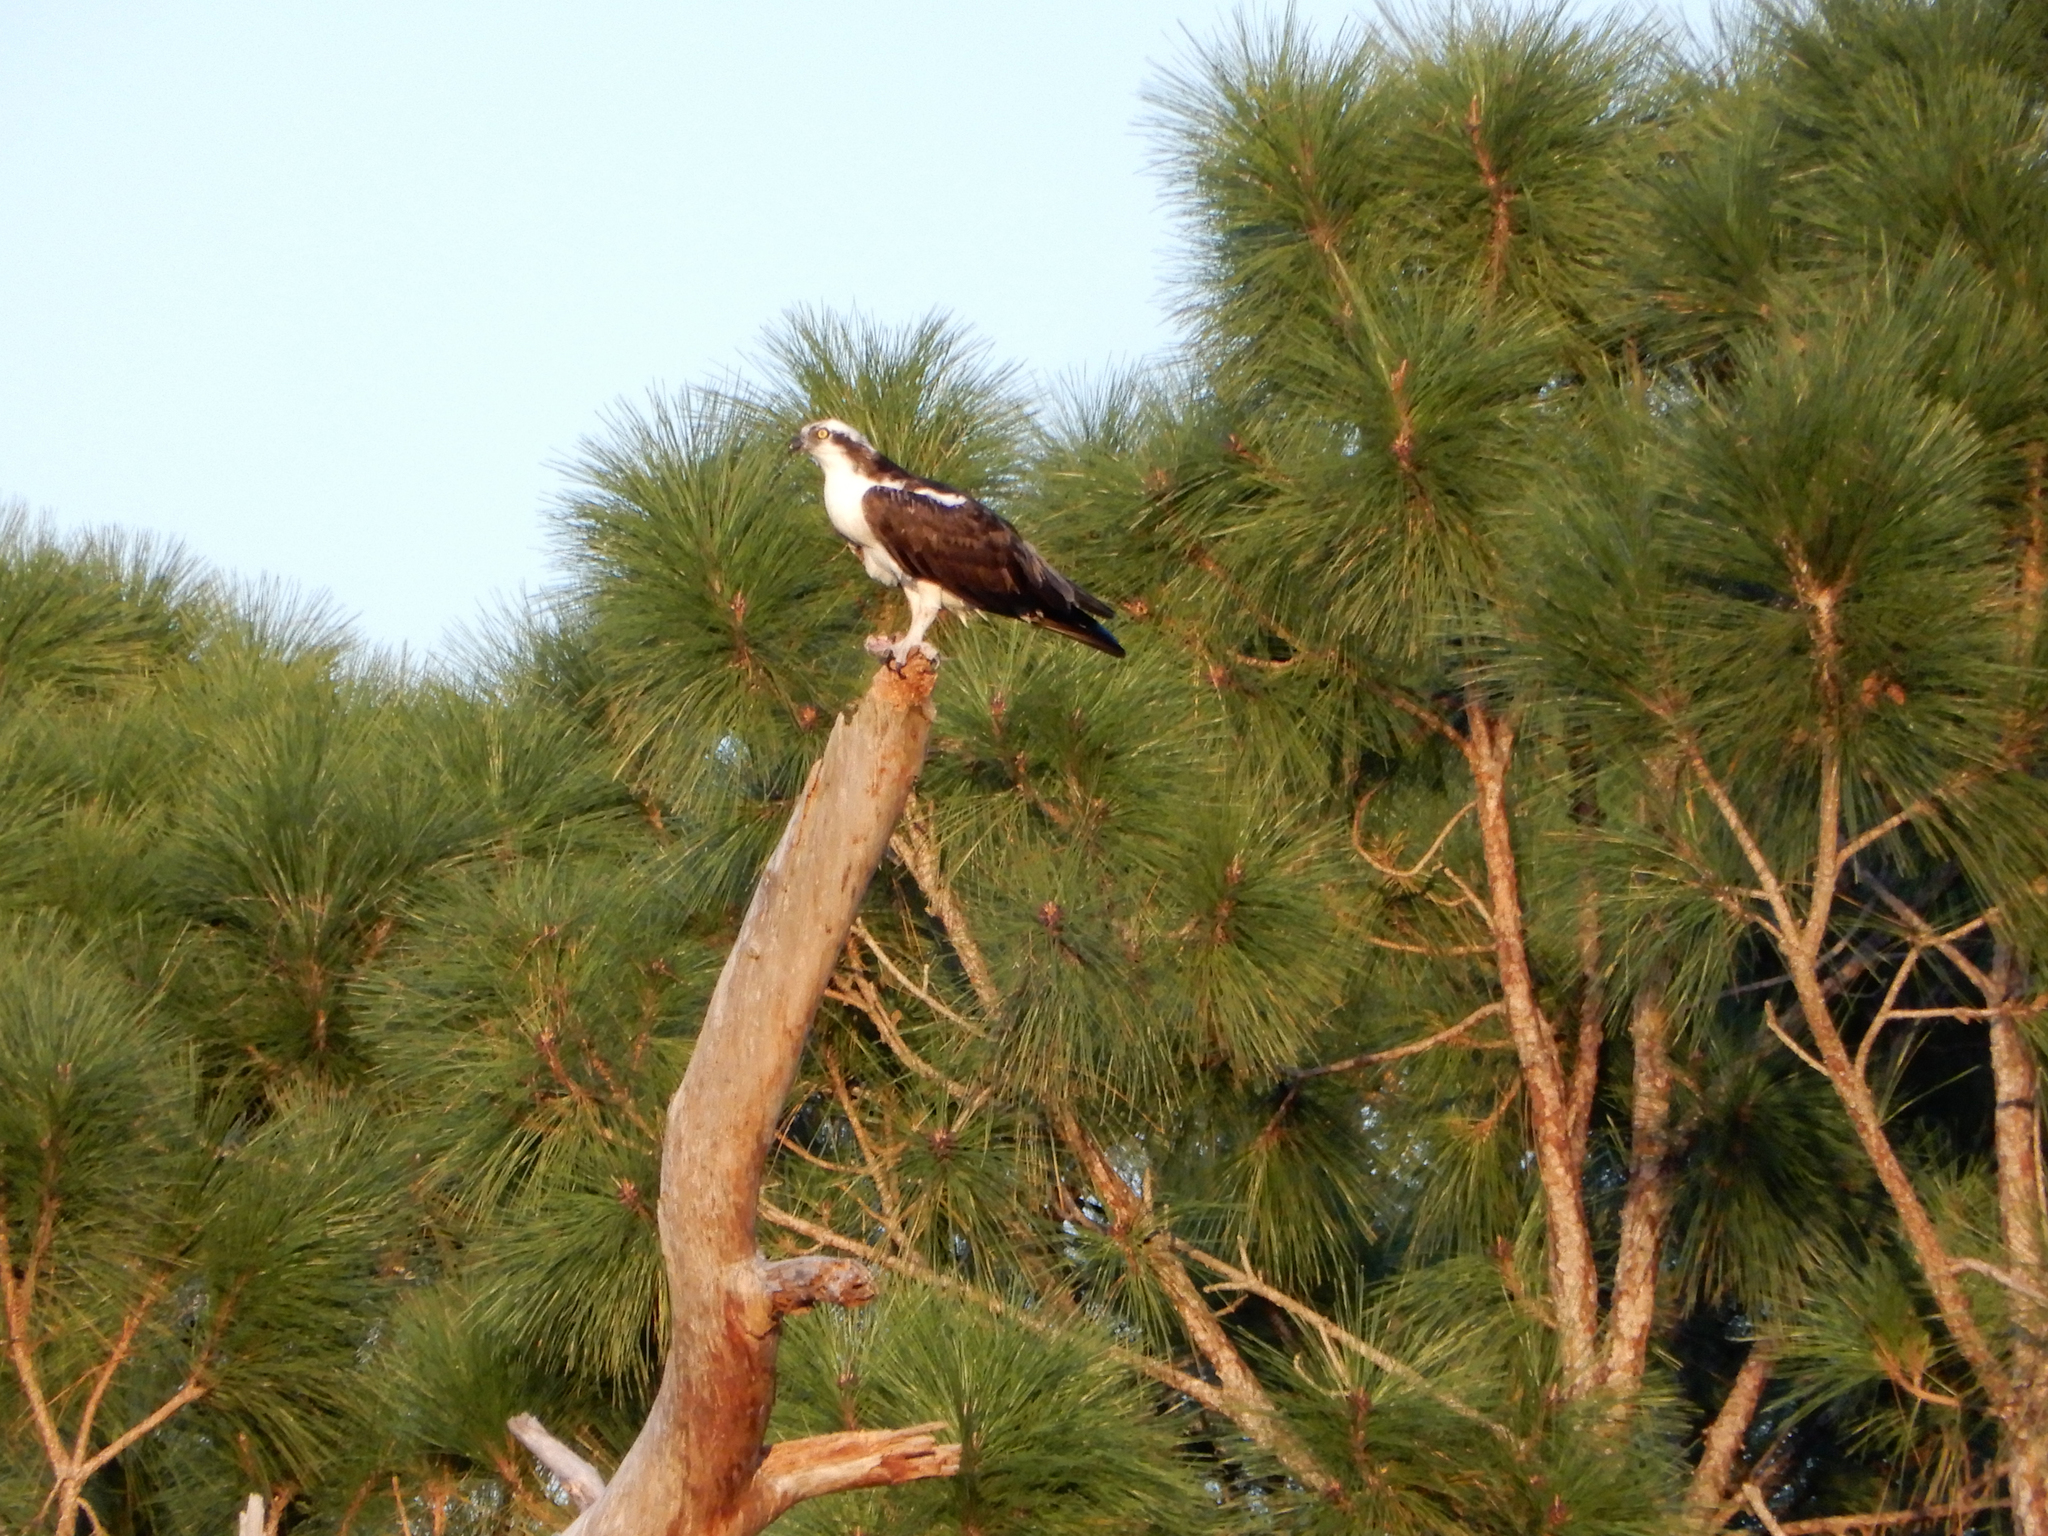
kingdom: Animalia
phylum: Chordata
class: Aves
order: Accipitriformes
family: Pandionidae
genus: Pandion
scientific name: Pandion haliaetus
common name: Osprey
